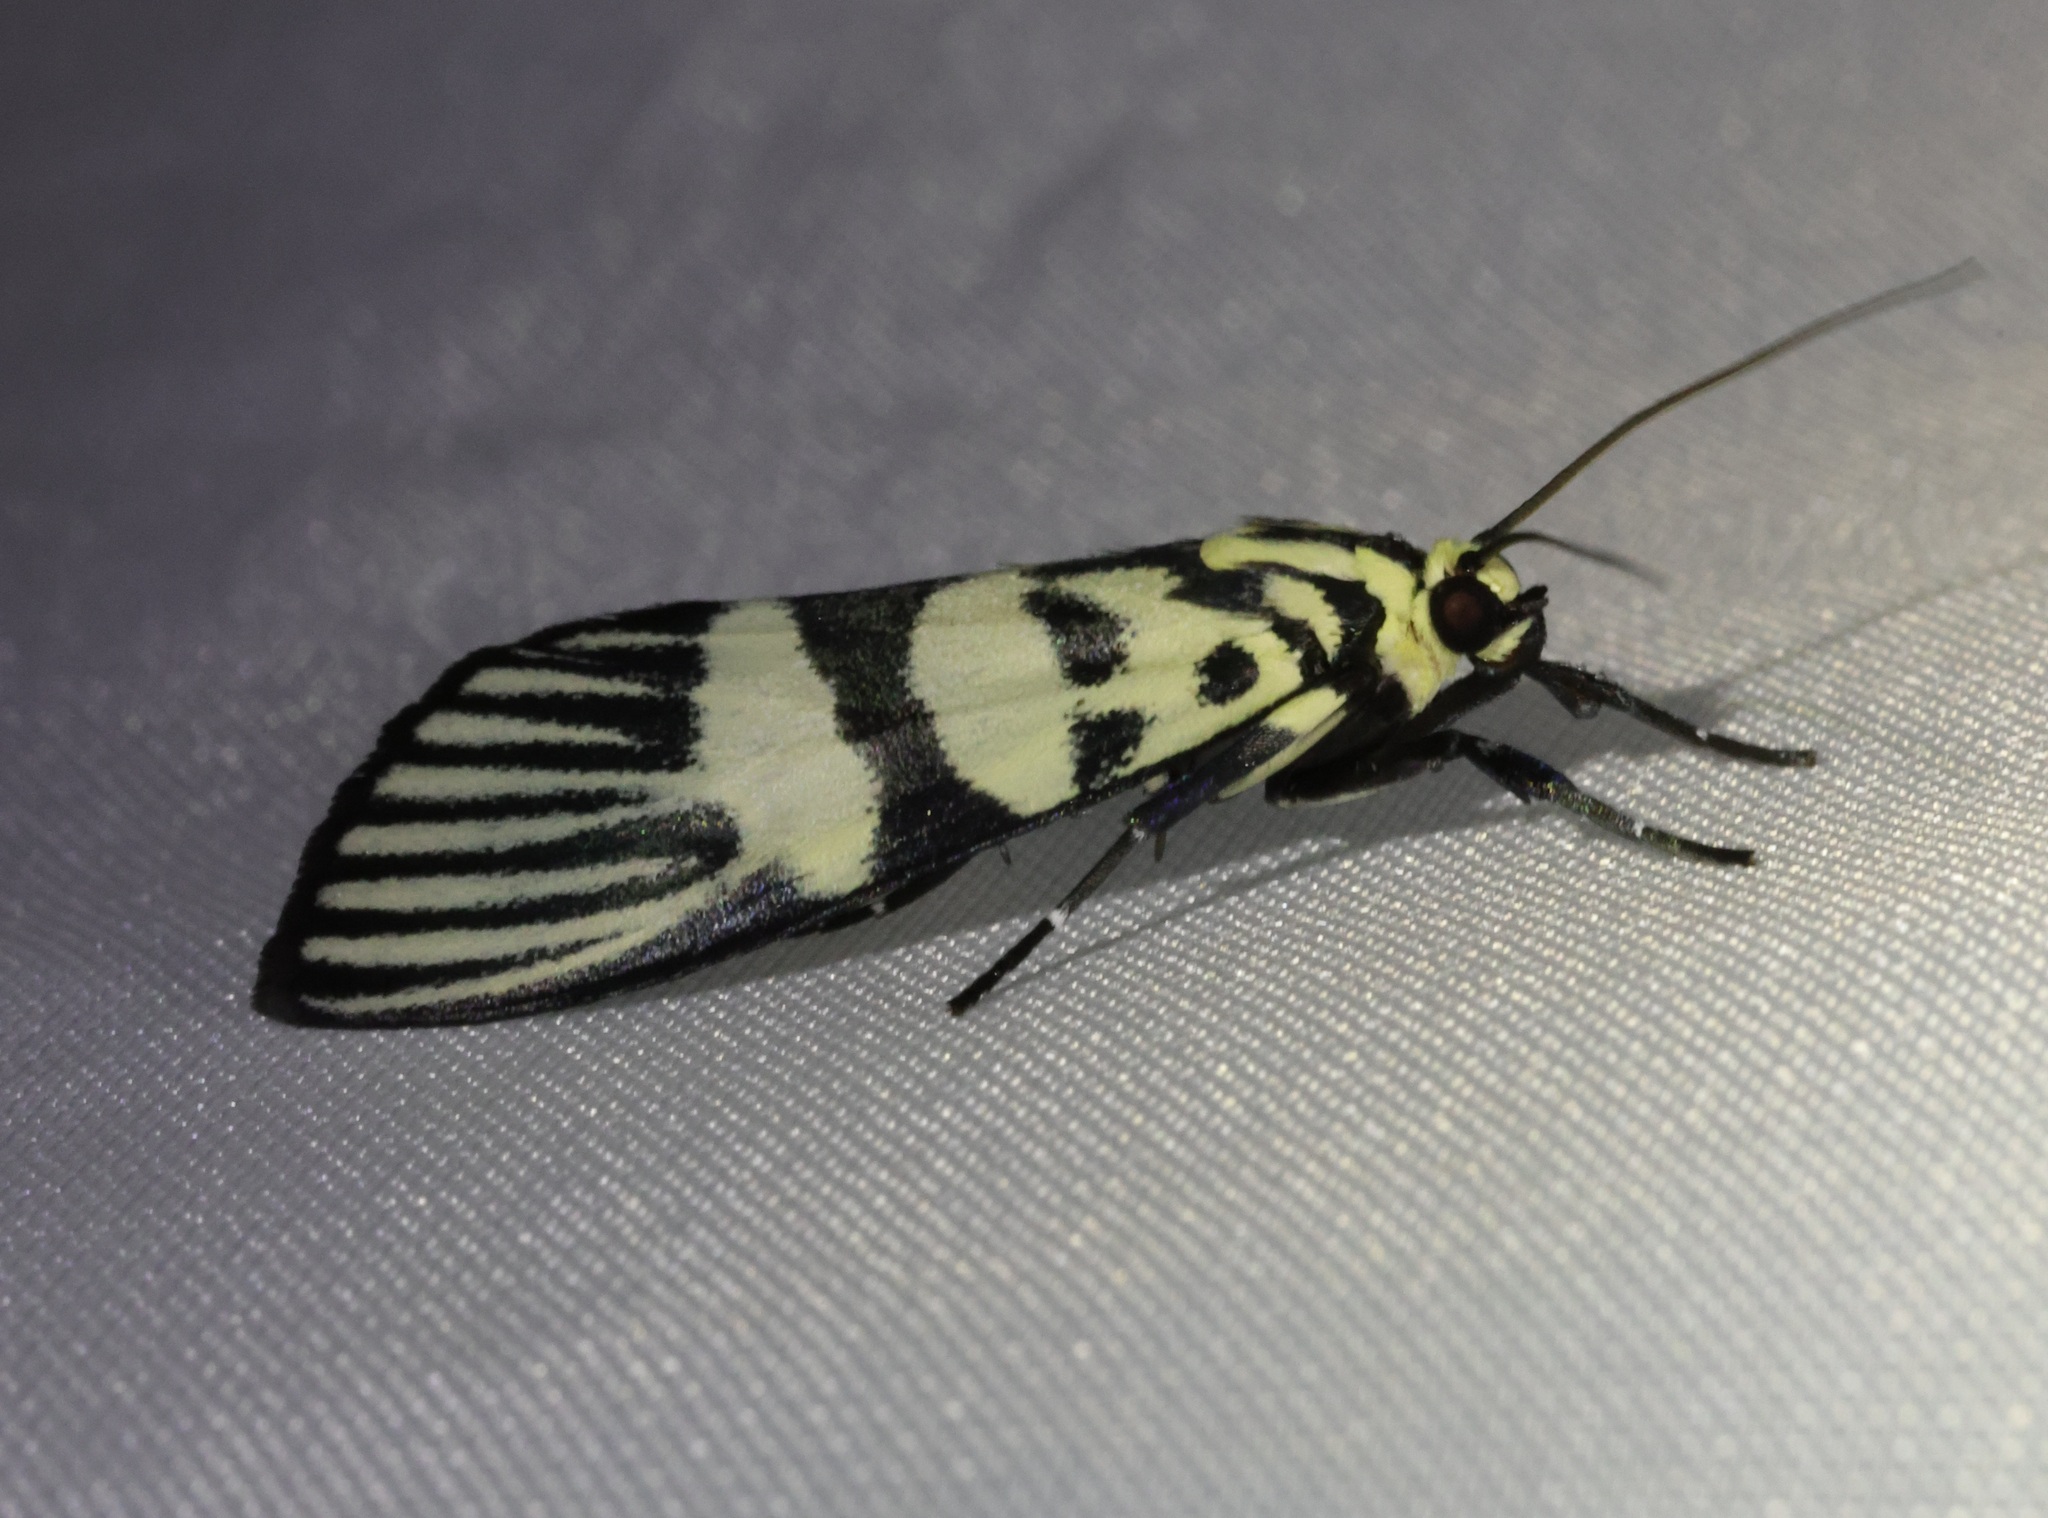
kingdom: Animalia
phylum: Arthropoda
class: Insecta
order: Lepidoptera
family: Crambidae
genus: Heortia
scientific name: Heortia vitessoides
